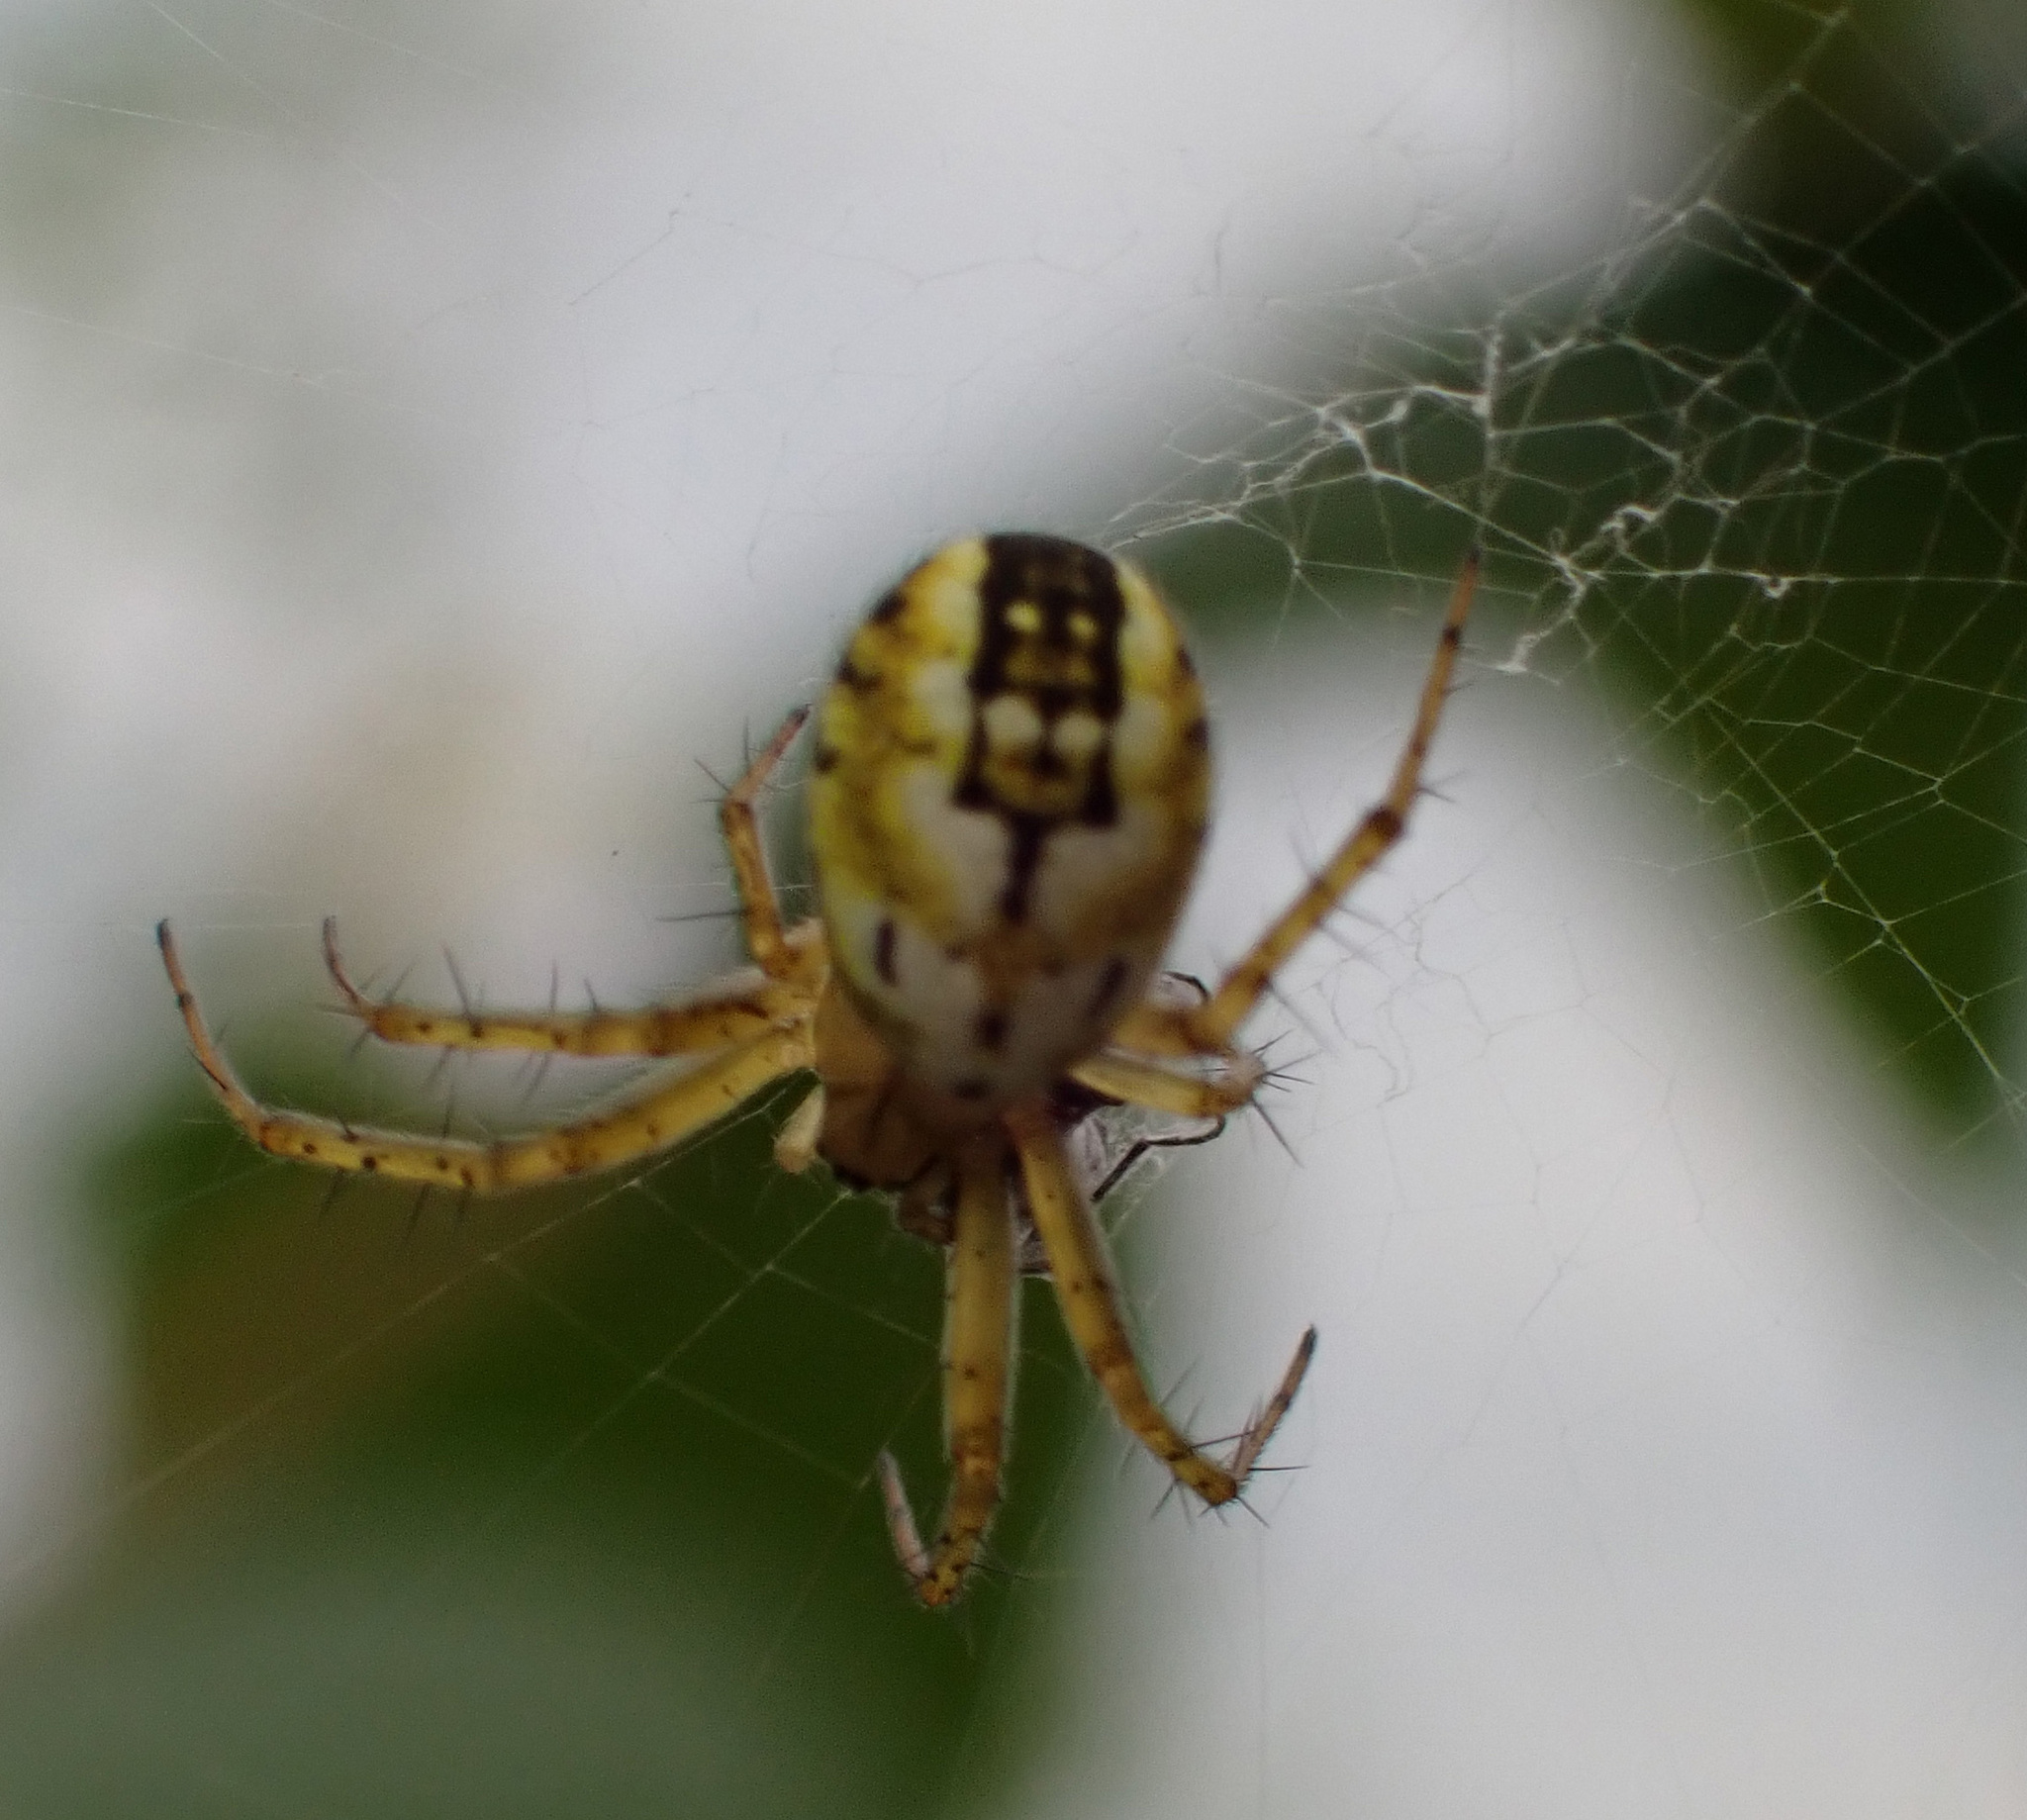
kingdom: Animalia
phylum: Arthropoda
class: Arachnida
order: Araneae
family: Araneidae
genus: Mangora
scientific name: Mangora acalypha
